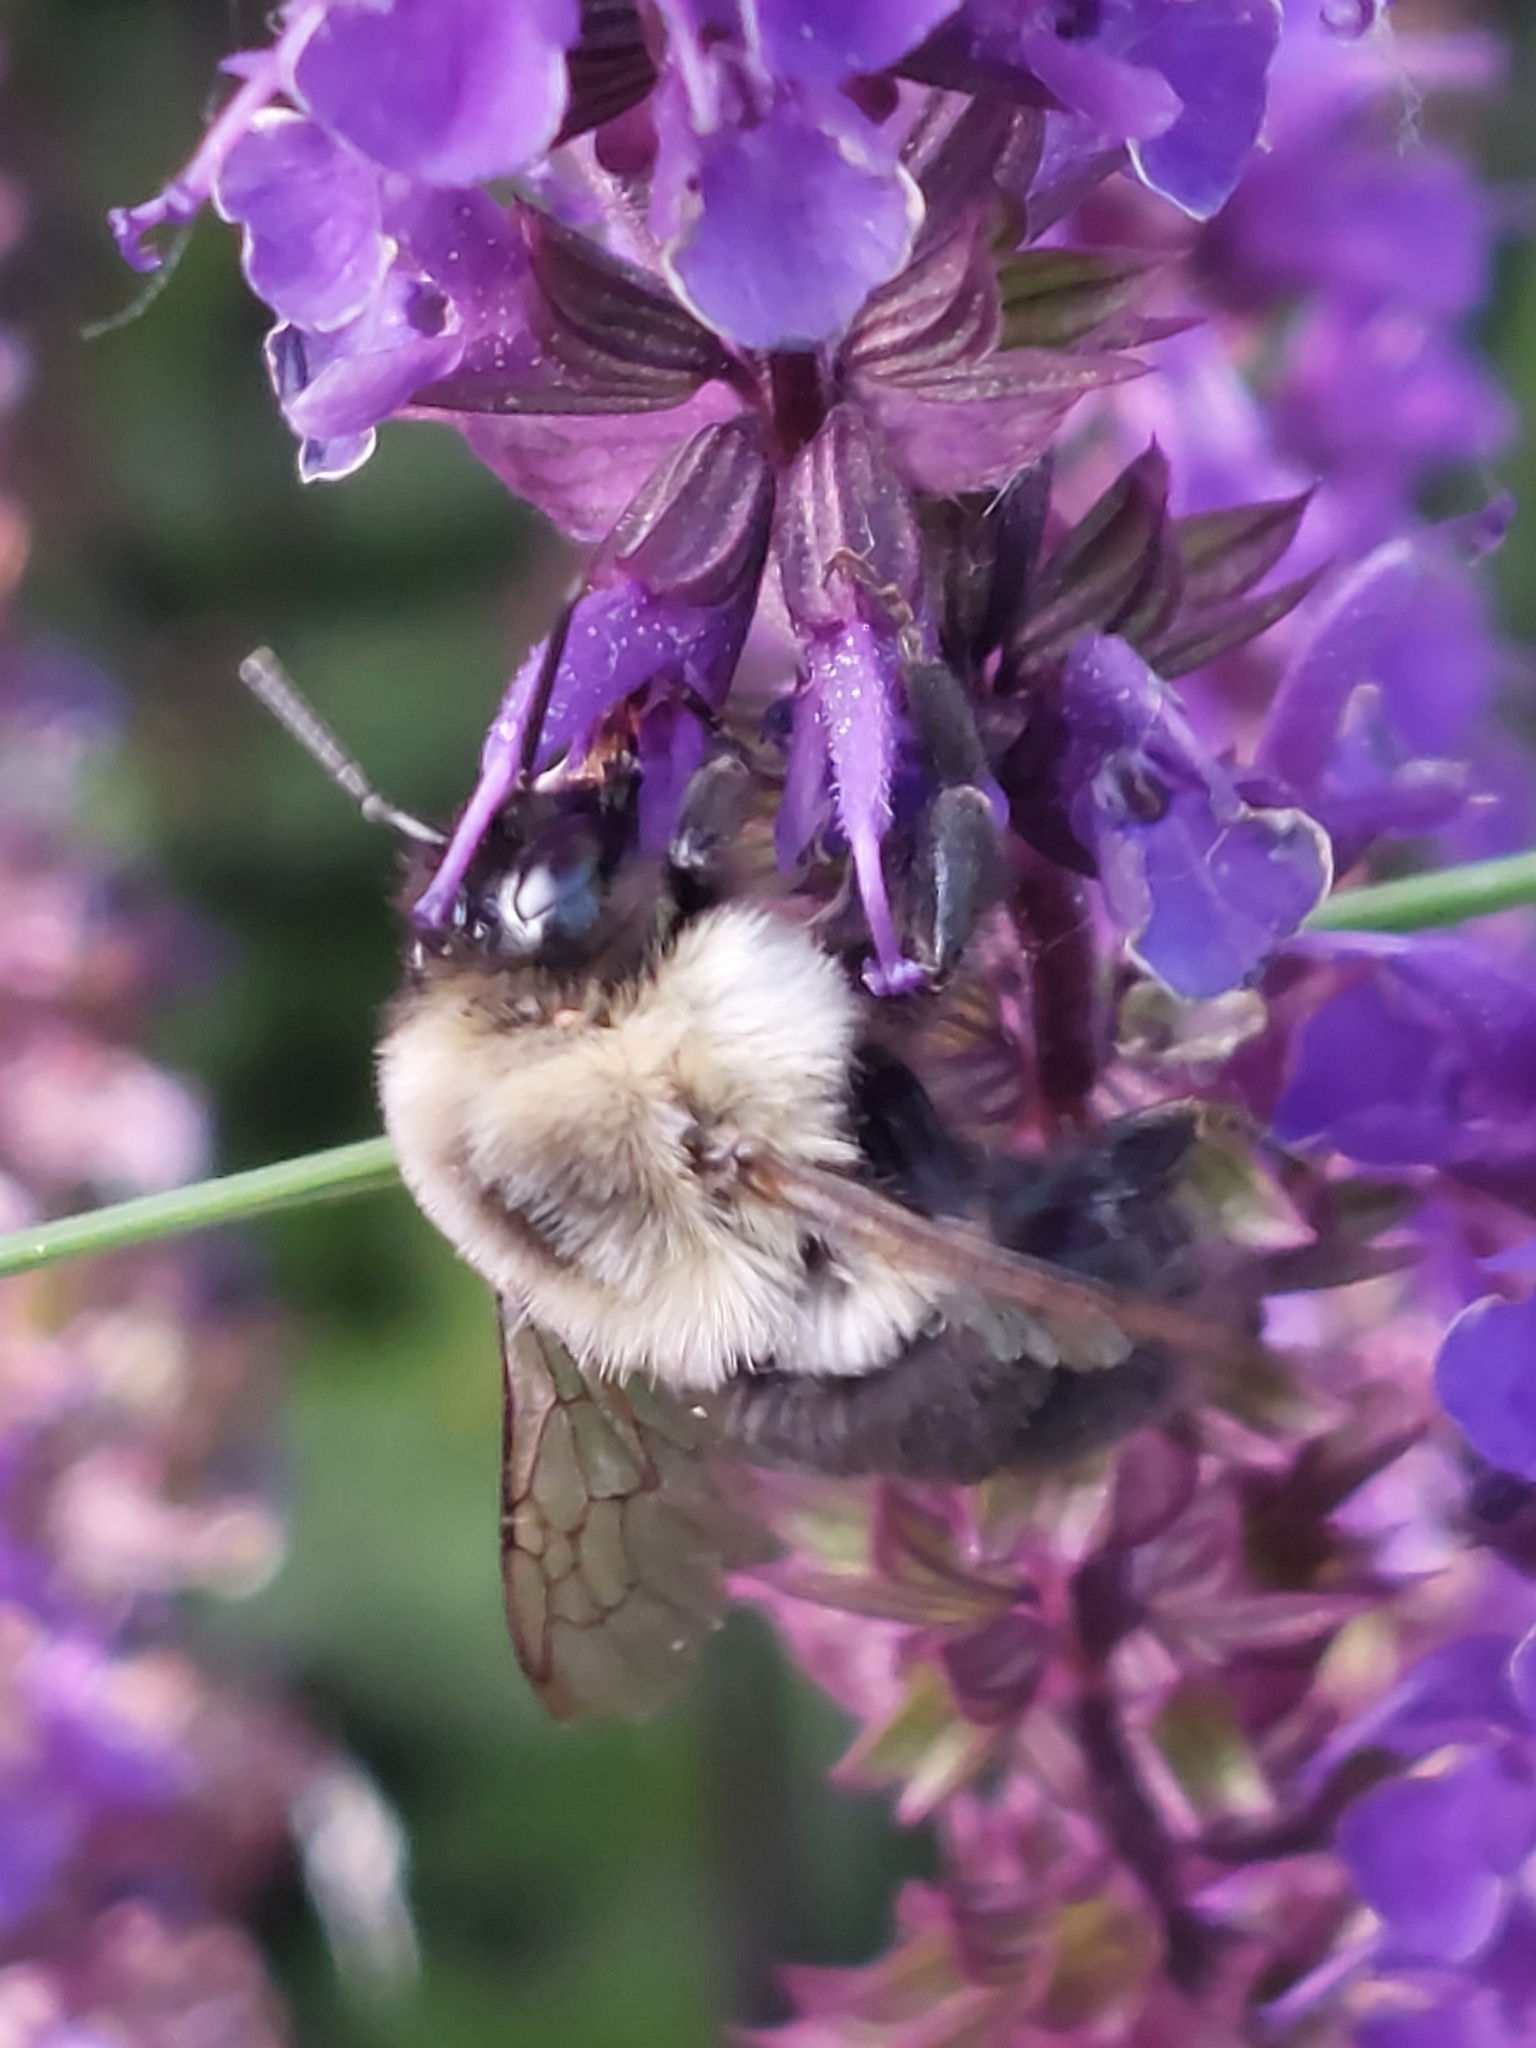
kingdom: Animalia
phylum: Arthropoda
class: Insecta
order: Hymenoptera
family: Apidae
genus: Bombus
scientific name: Bombus impatiens
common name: Common eastern bumble bee
